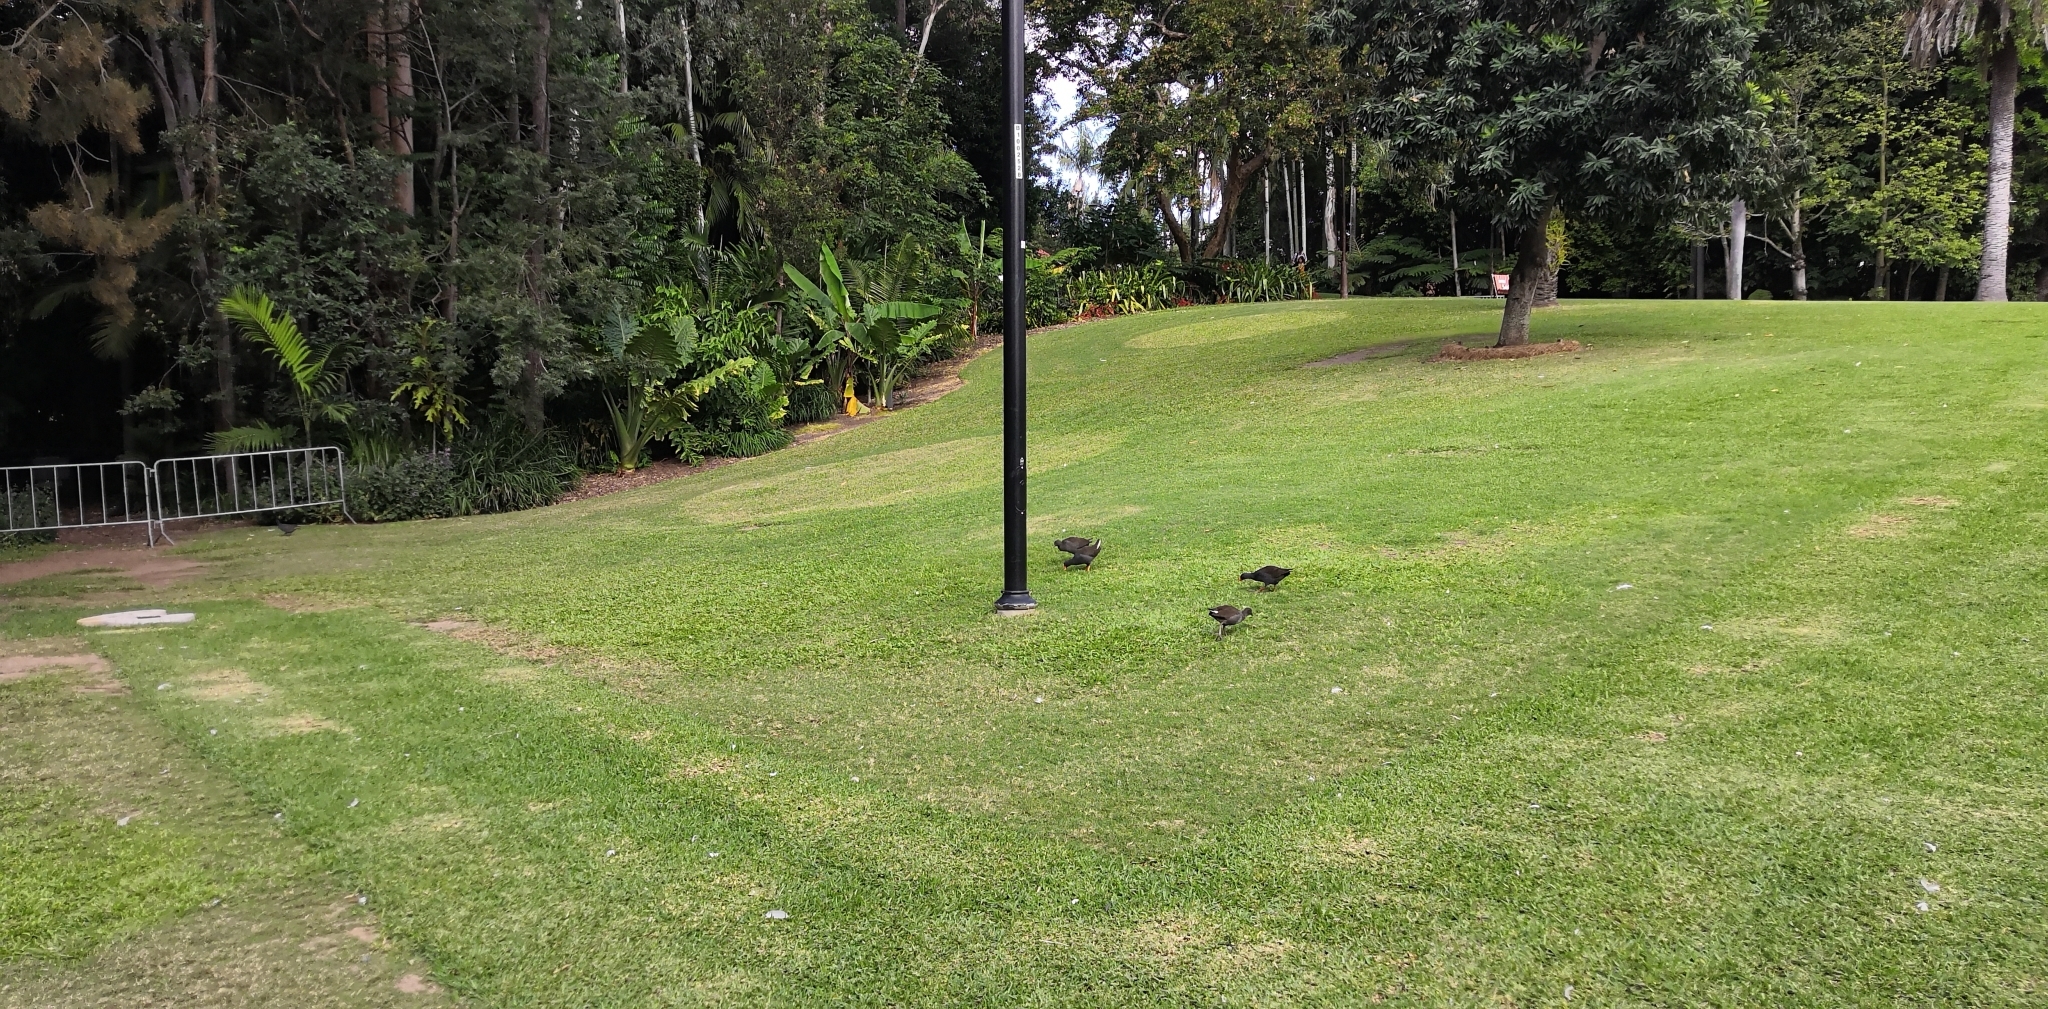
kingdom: Animalia
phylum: Chordata
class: Aves
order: Gruiformes
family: Rallidae
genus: Gallinula
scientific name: Gallinula tenebrosa
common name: Dusky moorhen
